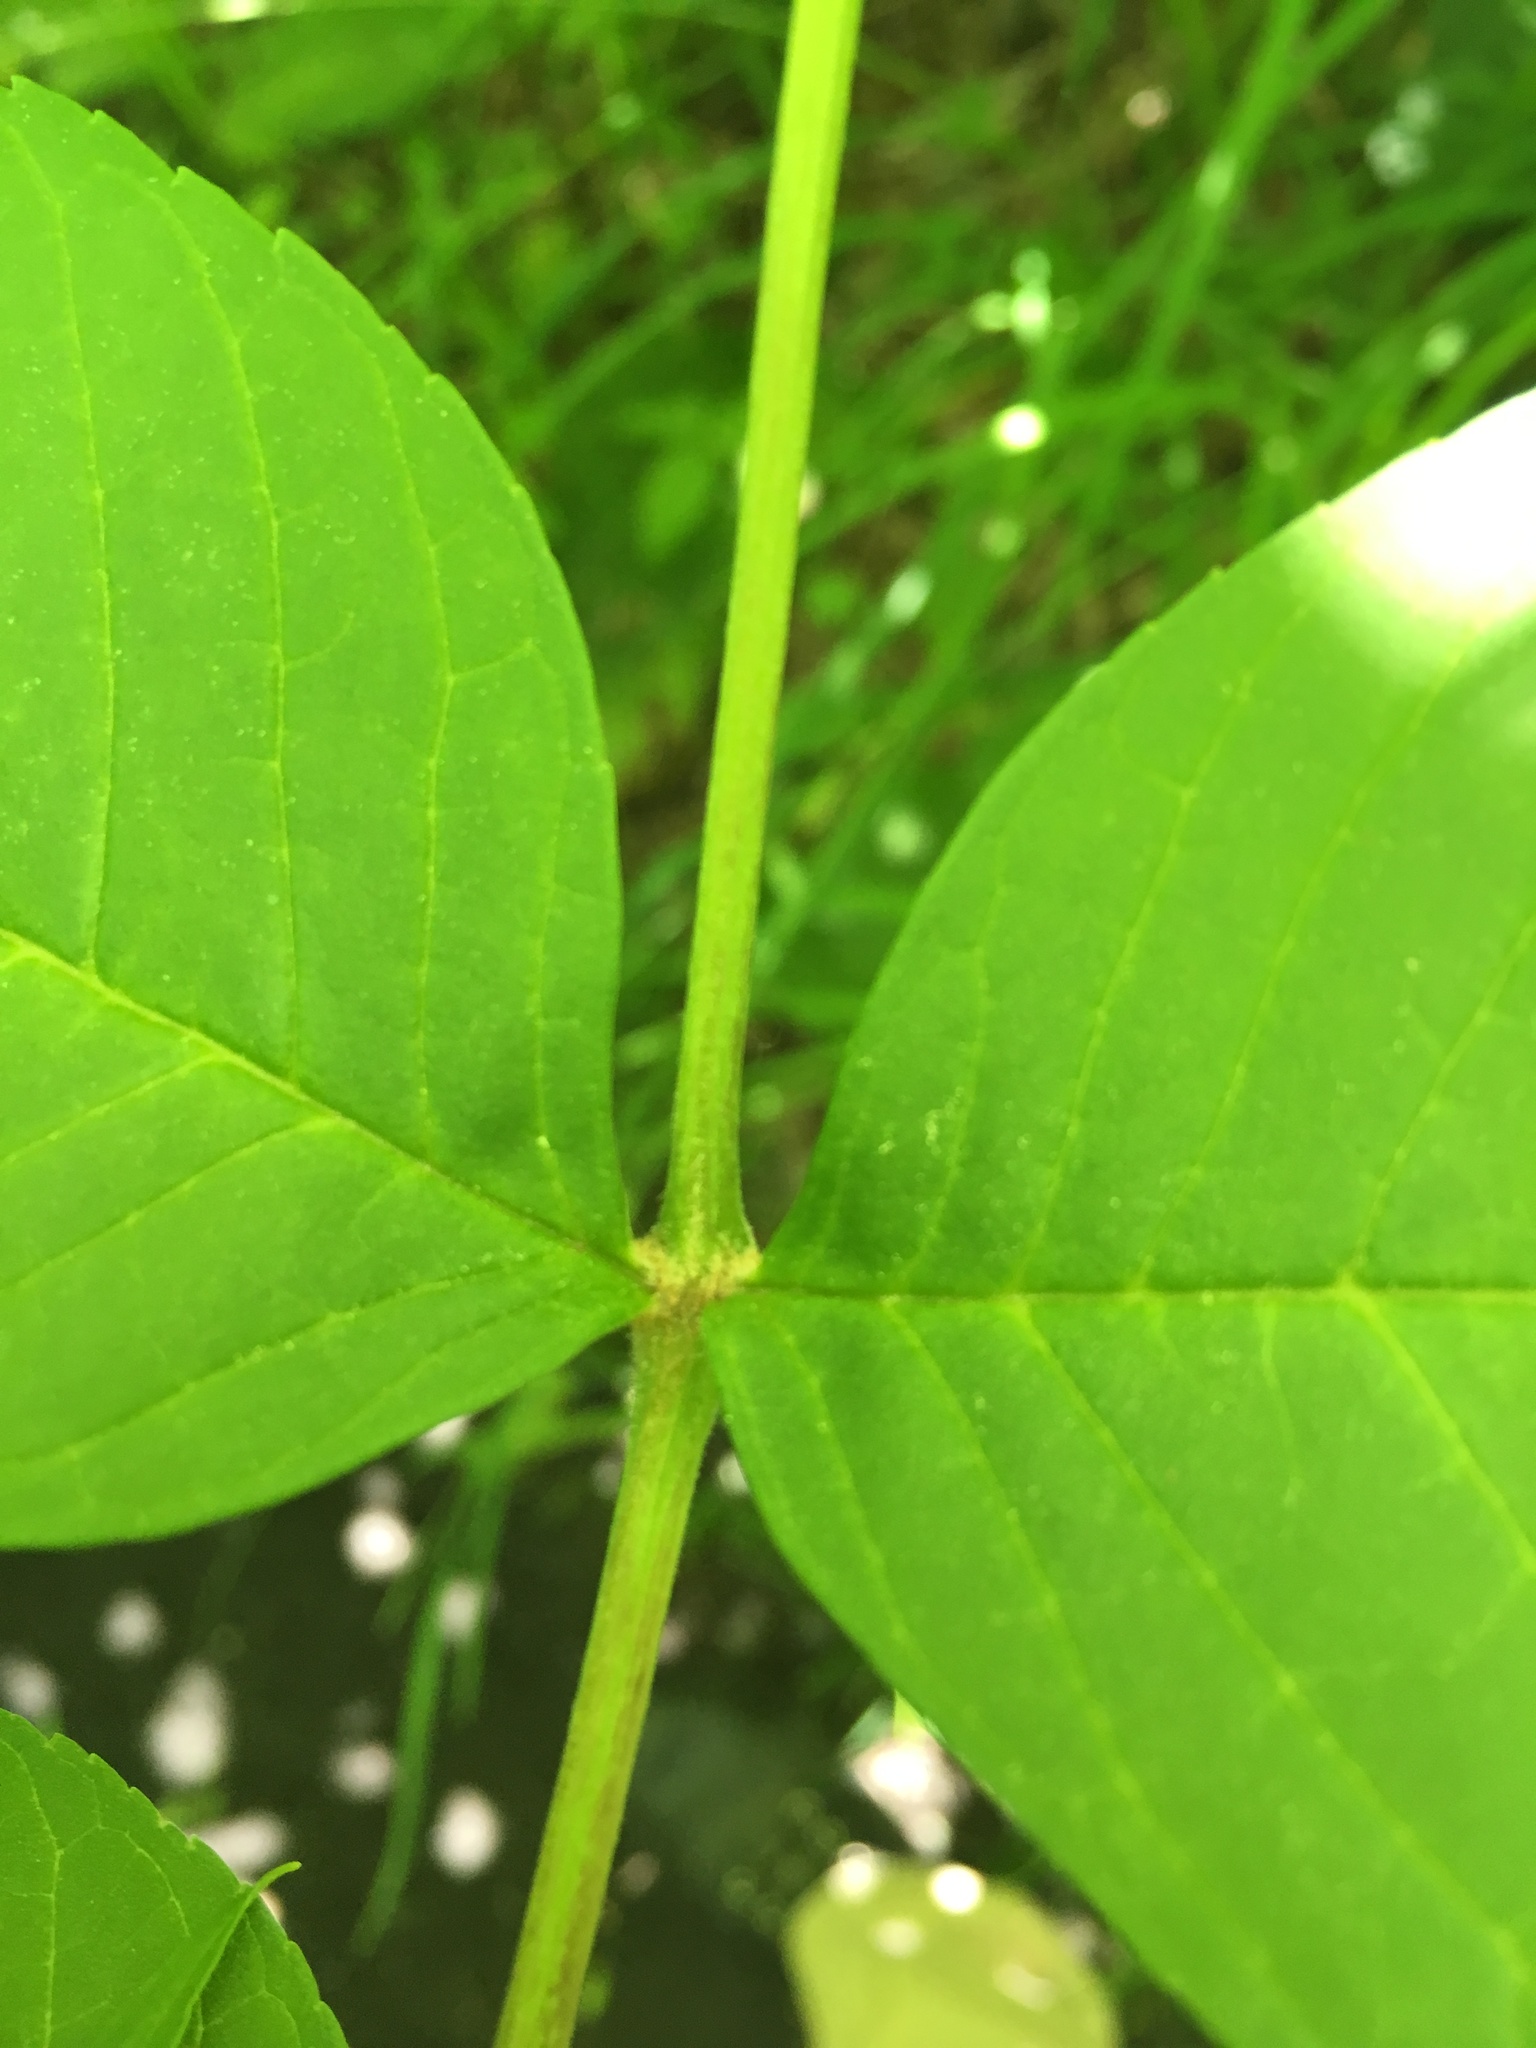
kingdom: Plantae
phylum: Tracheophyta
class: Magnoliopsida
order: Lamiales
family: Oleaceae
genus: Fraxinus
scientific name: Fraxinus nigra
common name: Black ash
